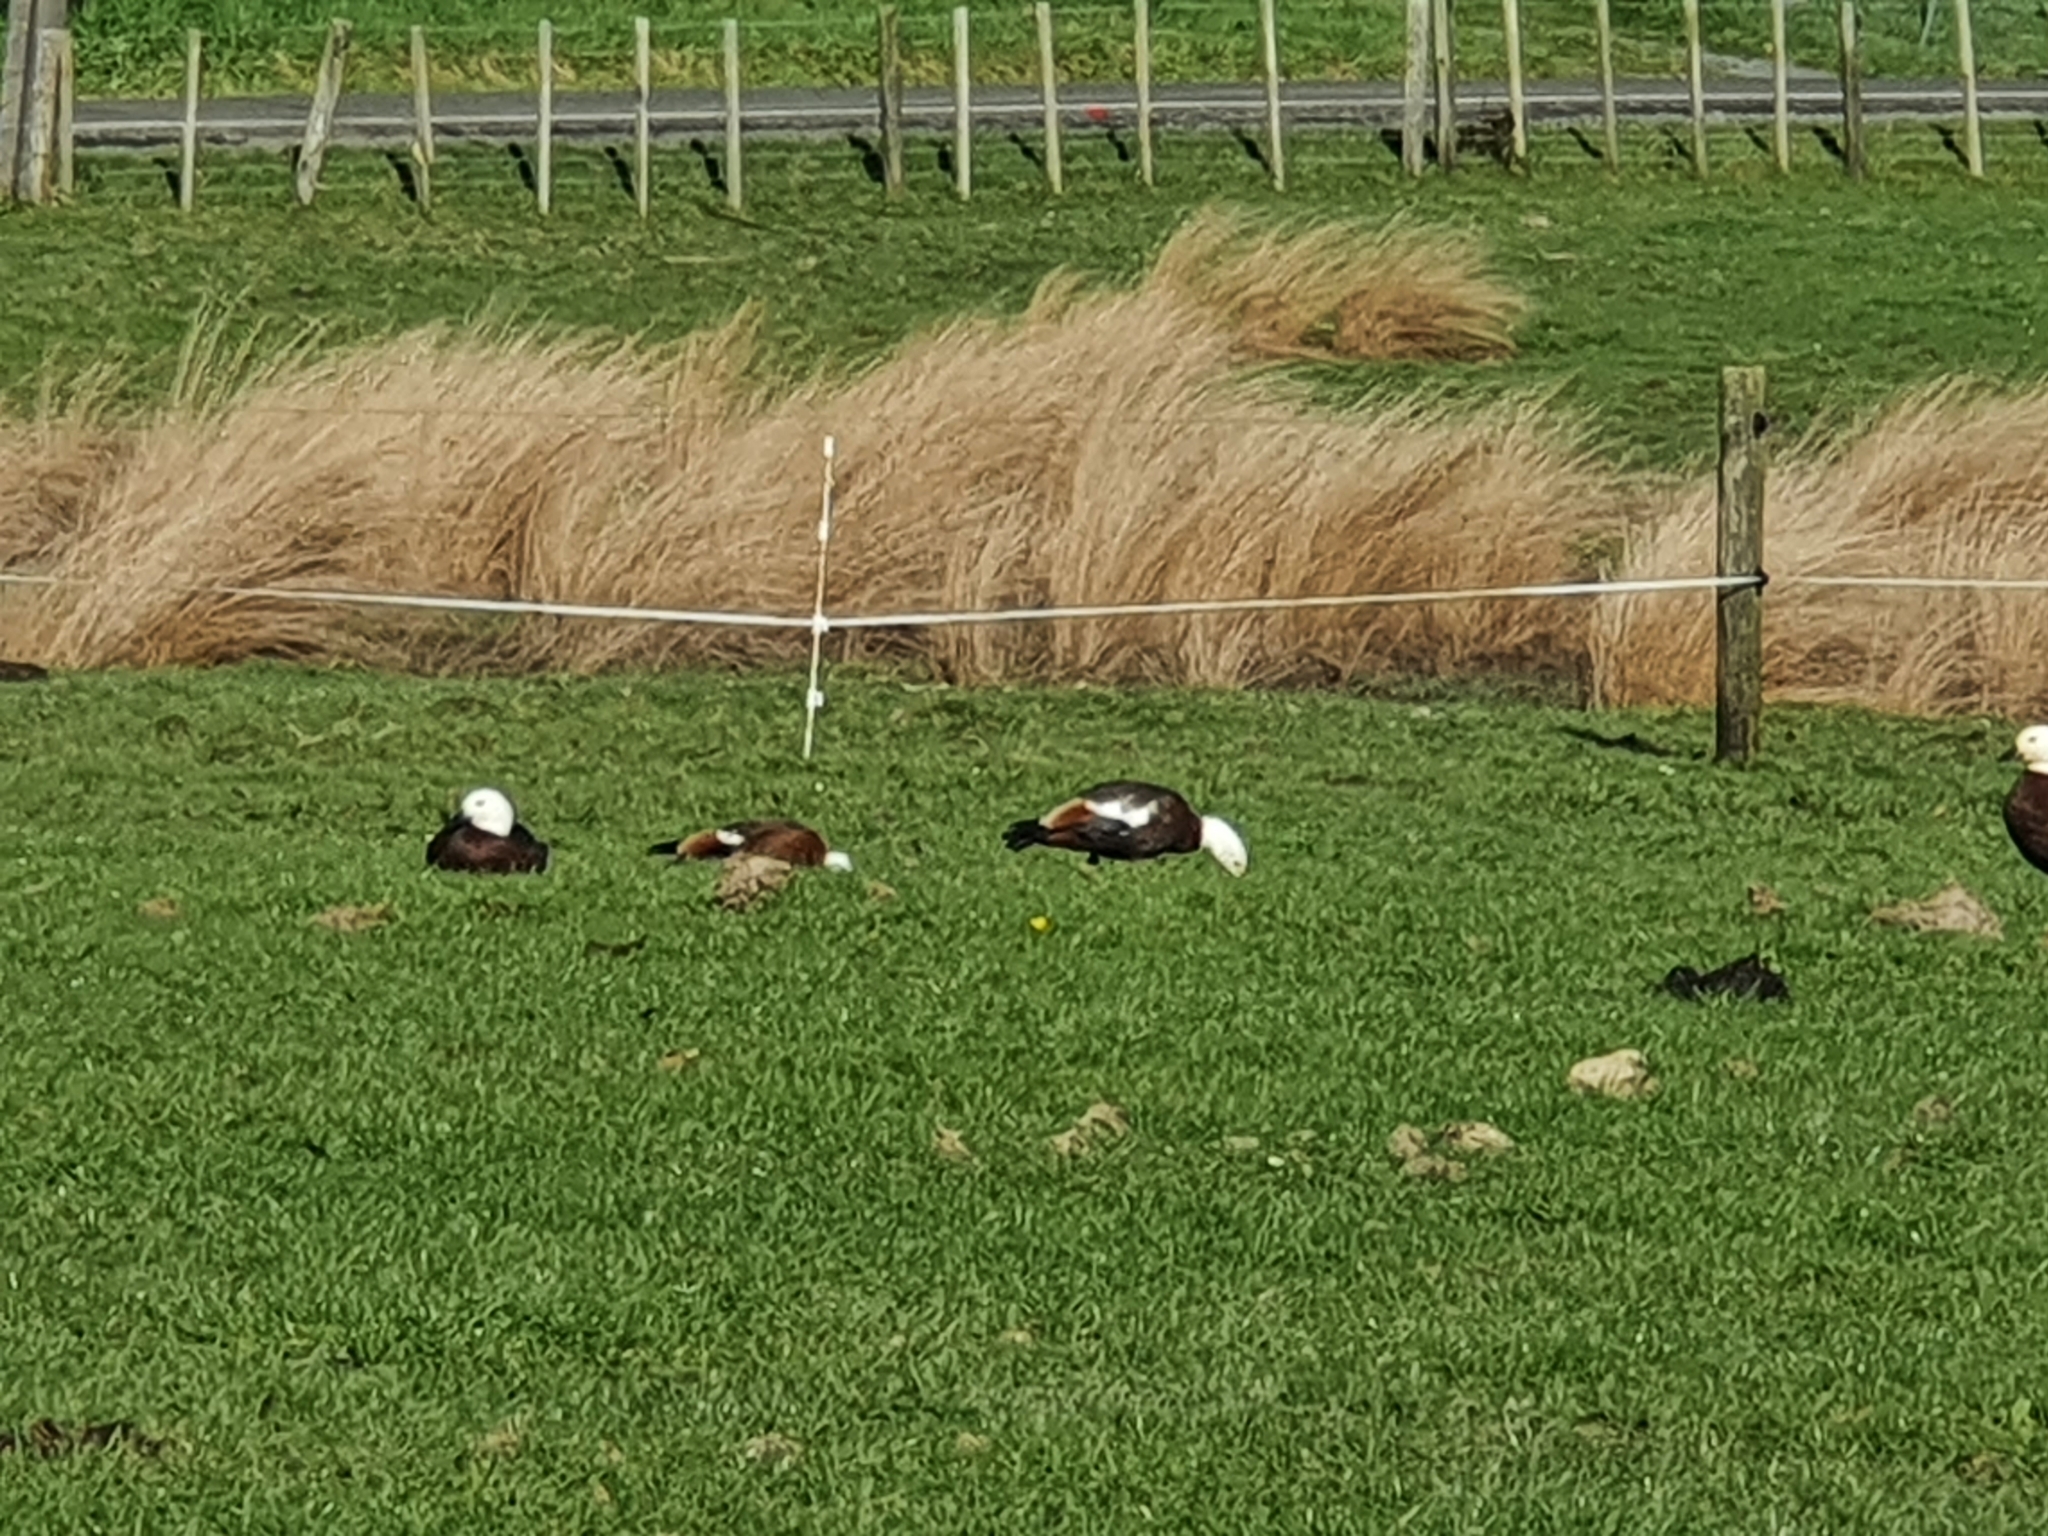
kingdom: Animalia
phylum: Chordata
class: Aves
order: Anseriformes
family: Anatidae
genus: Tadorna
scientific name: Tadorna variegata
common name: Paradise shelduck
